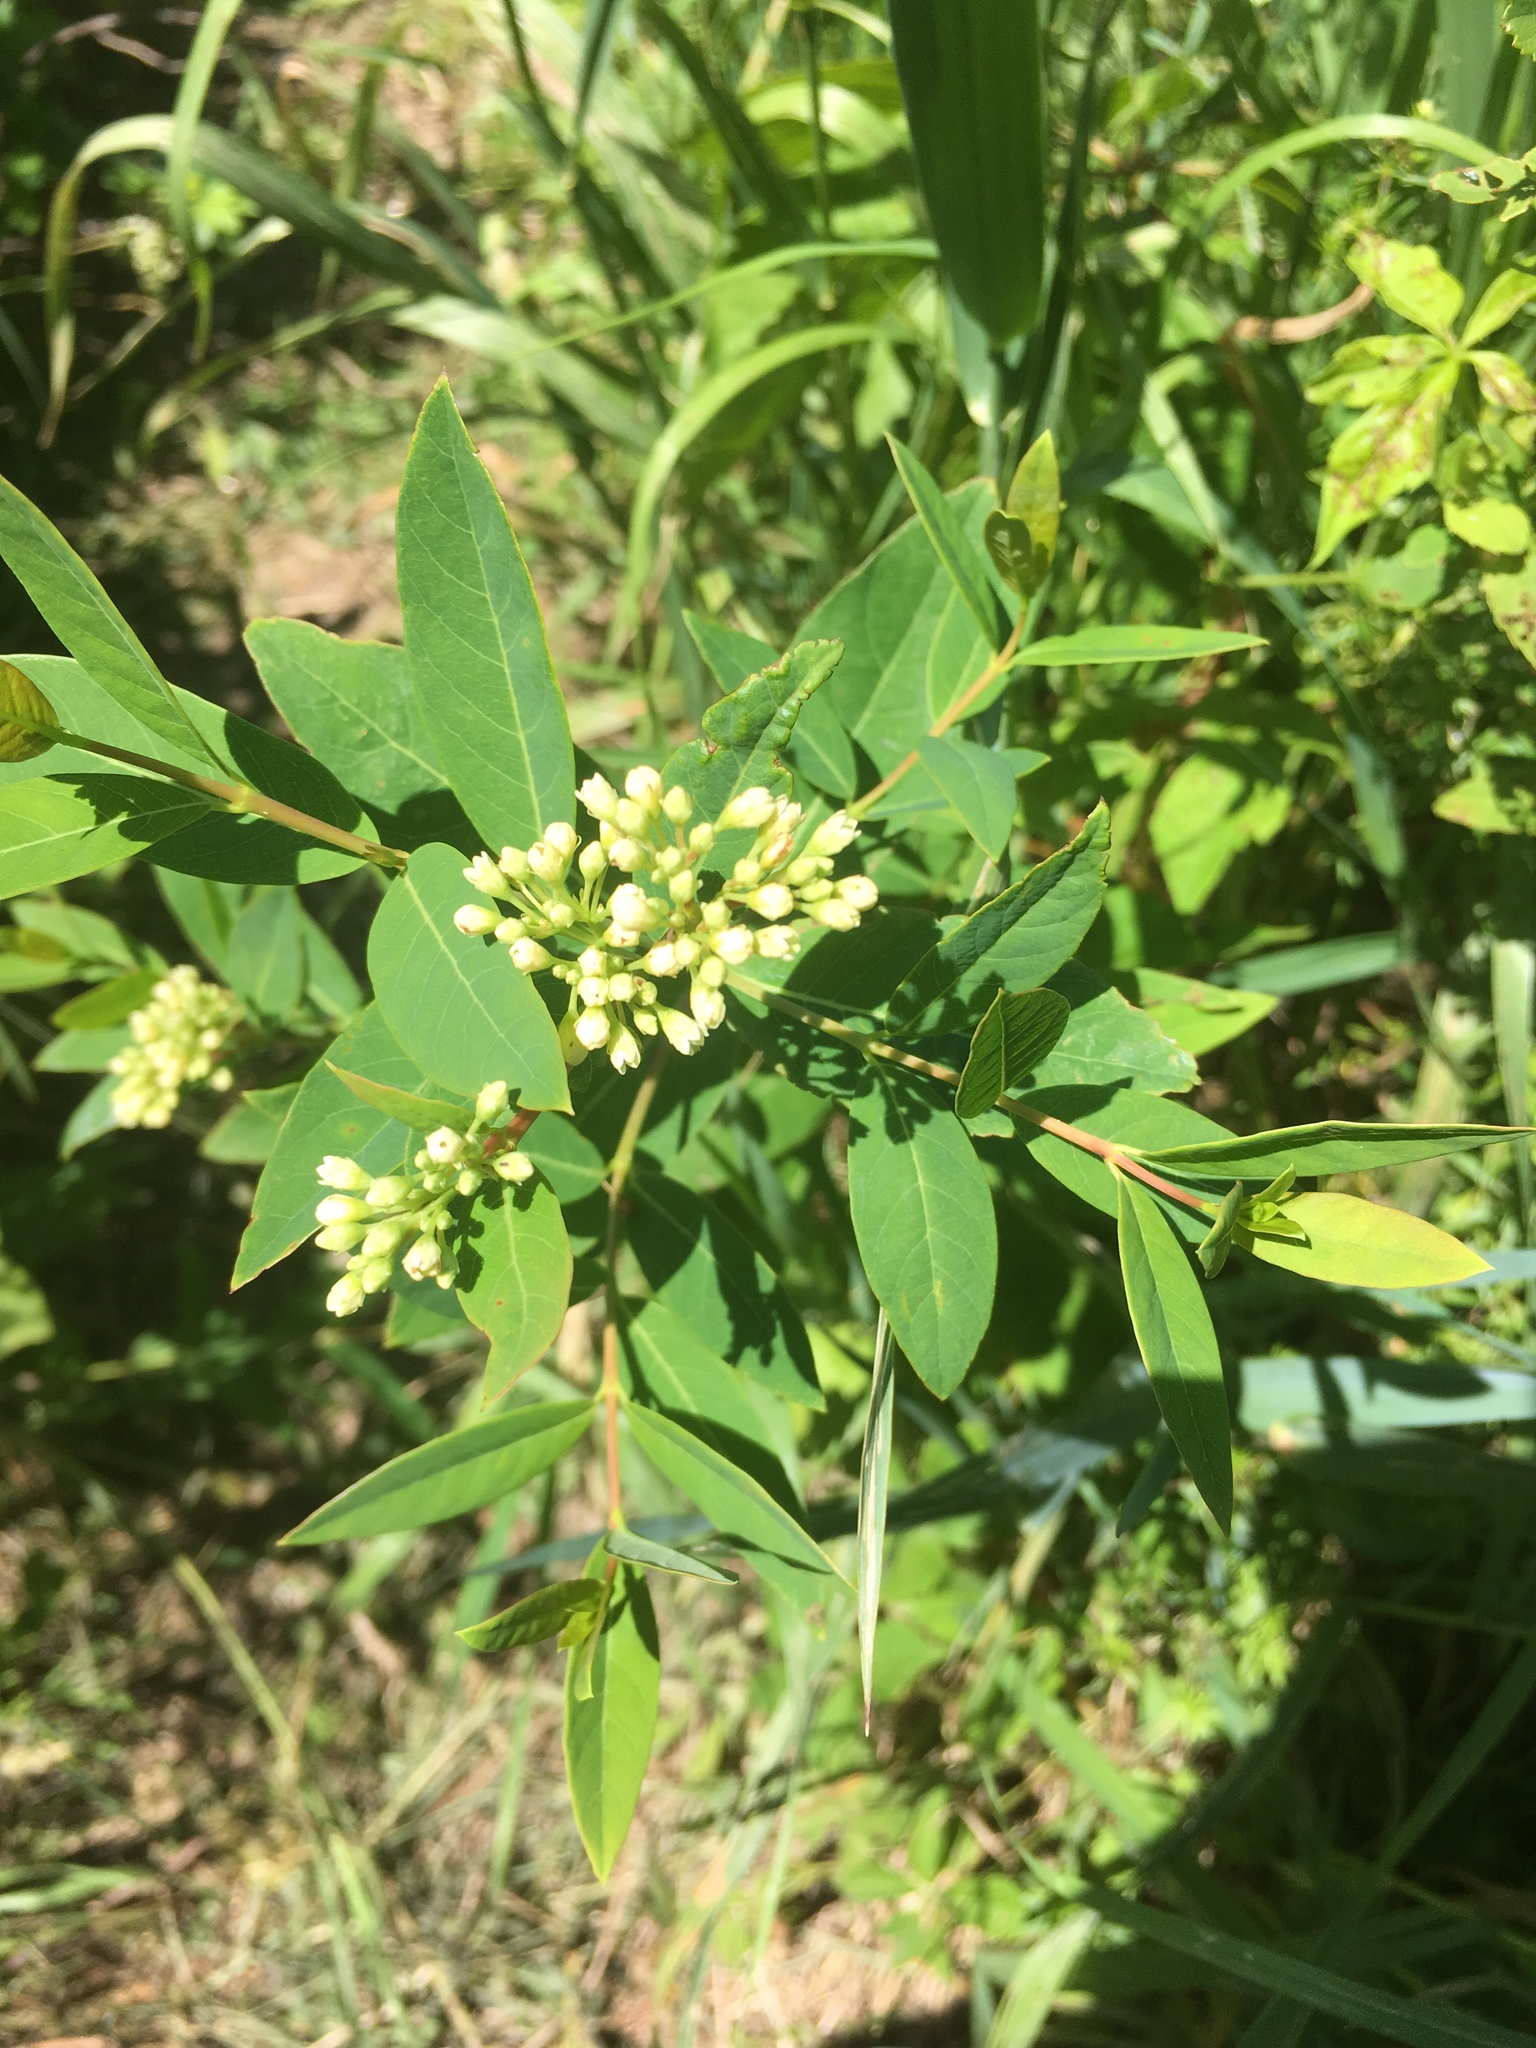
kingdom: Plantae
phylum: Tracheophyta
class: Magnoliopsida
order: Gentianales
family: Apocynaceae
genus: Apocynum
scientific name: Apocynum cannabinum
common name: Hemp dogbane
